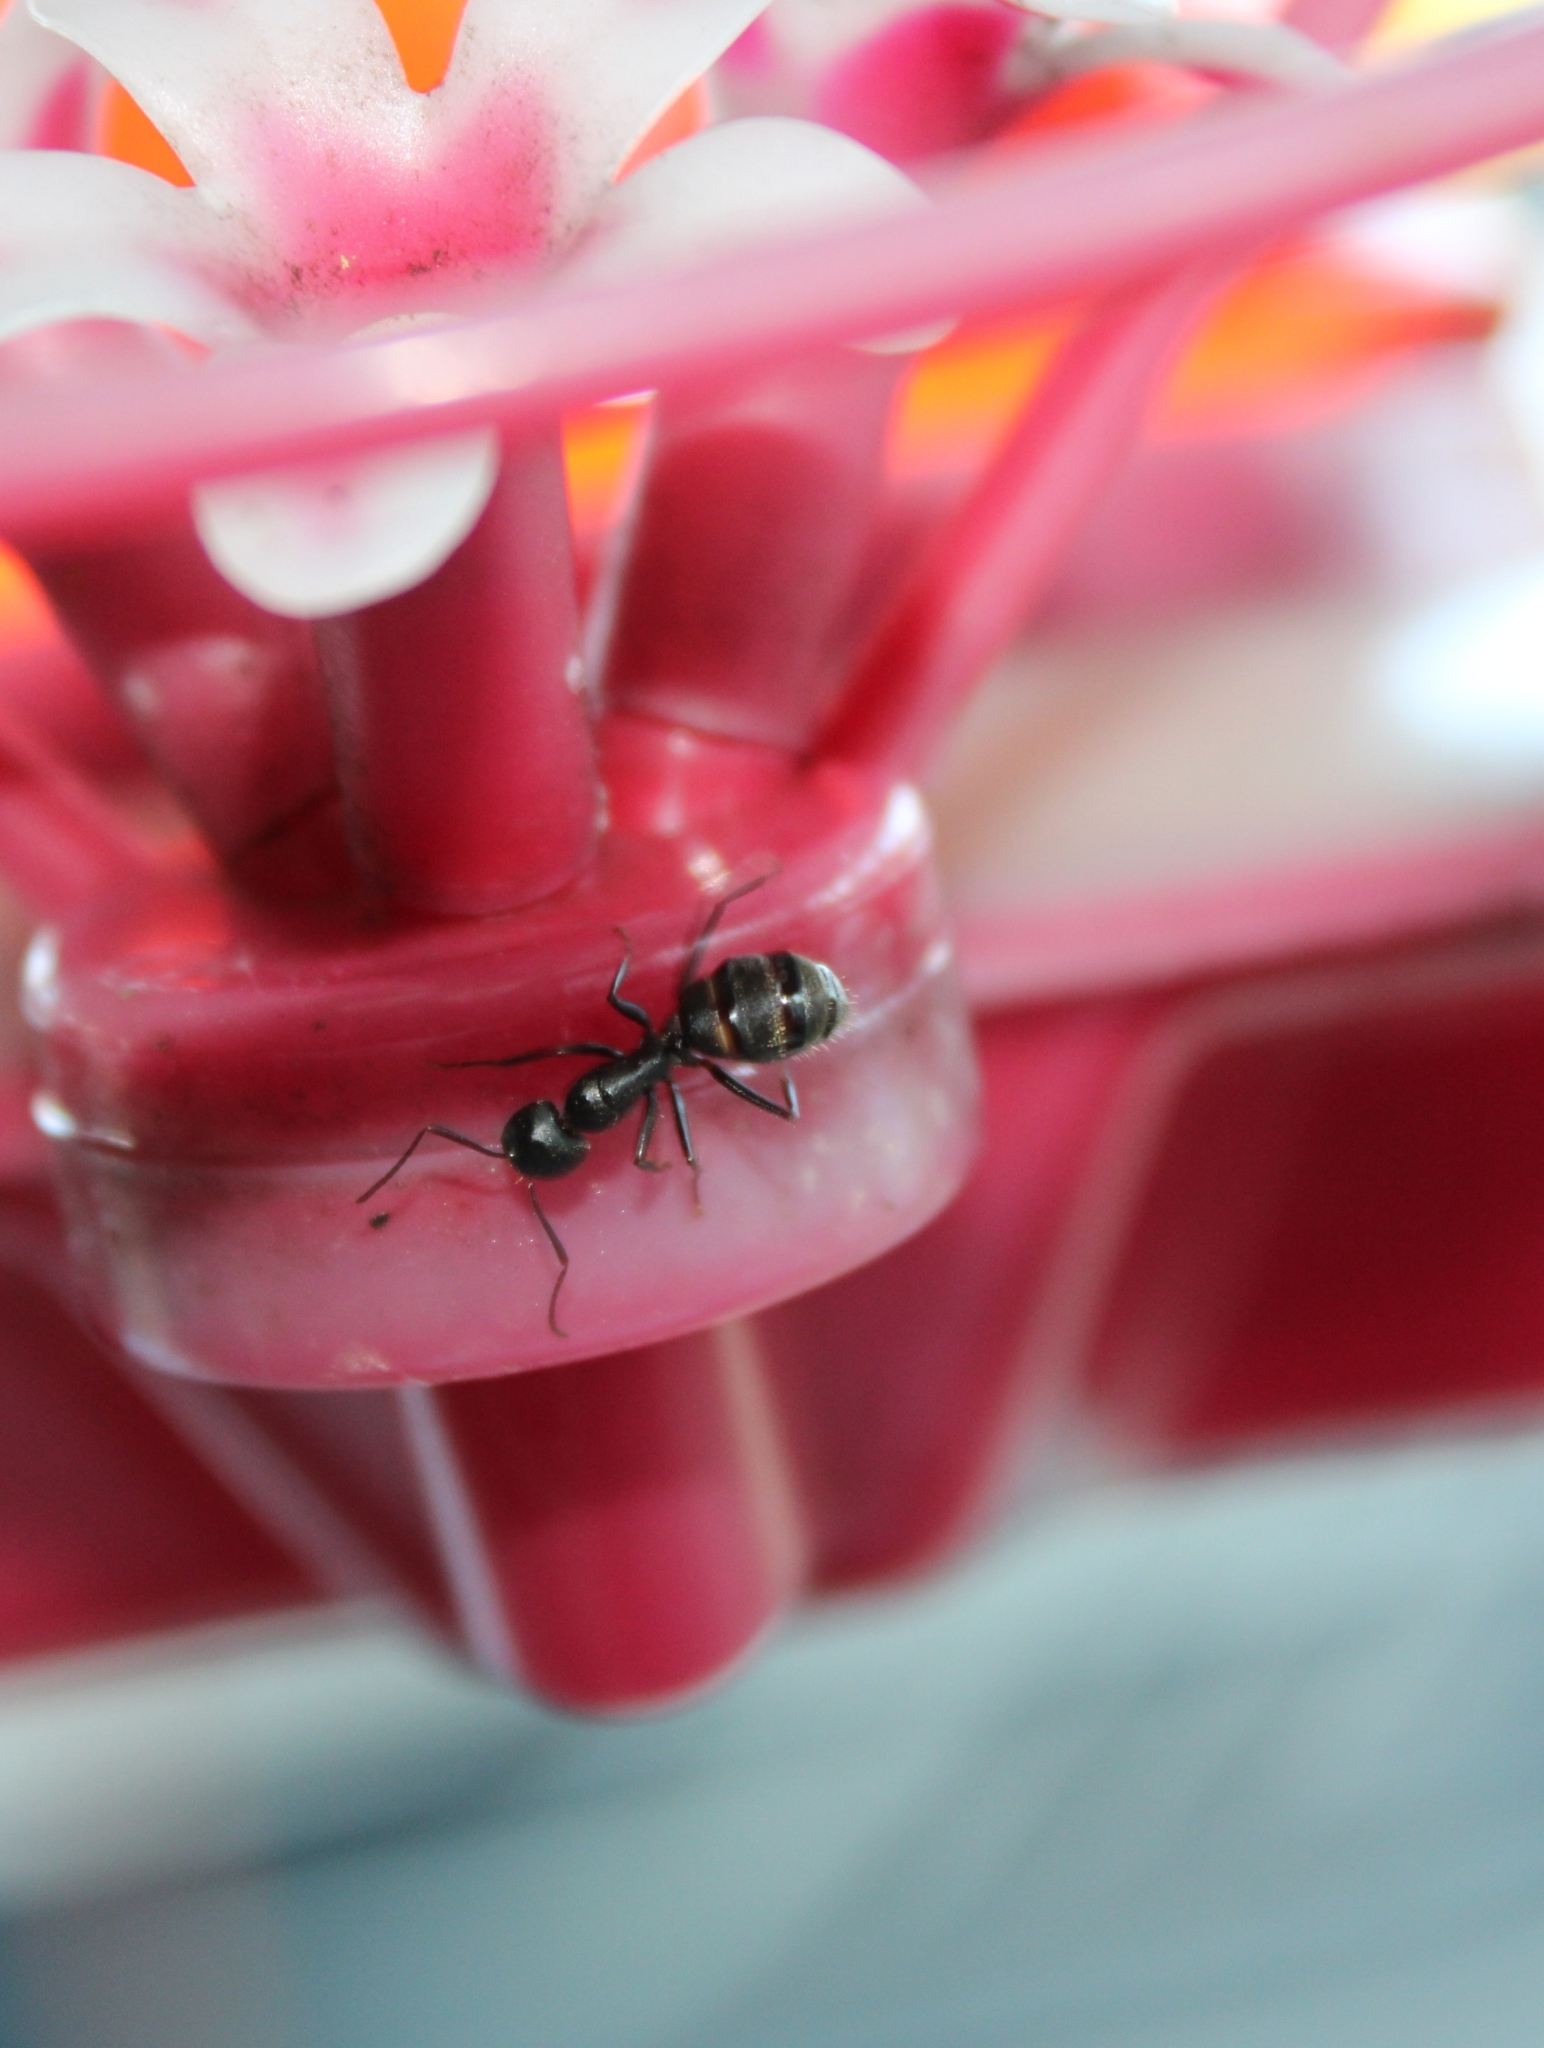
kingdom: Animalia
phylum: Arthropoda
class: Insecta
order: Hymenoptera
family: Formicidae
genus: Camponotus
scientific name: Camponotus pennsylvanicus
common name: Black carpenter ant
